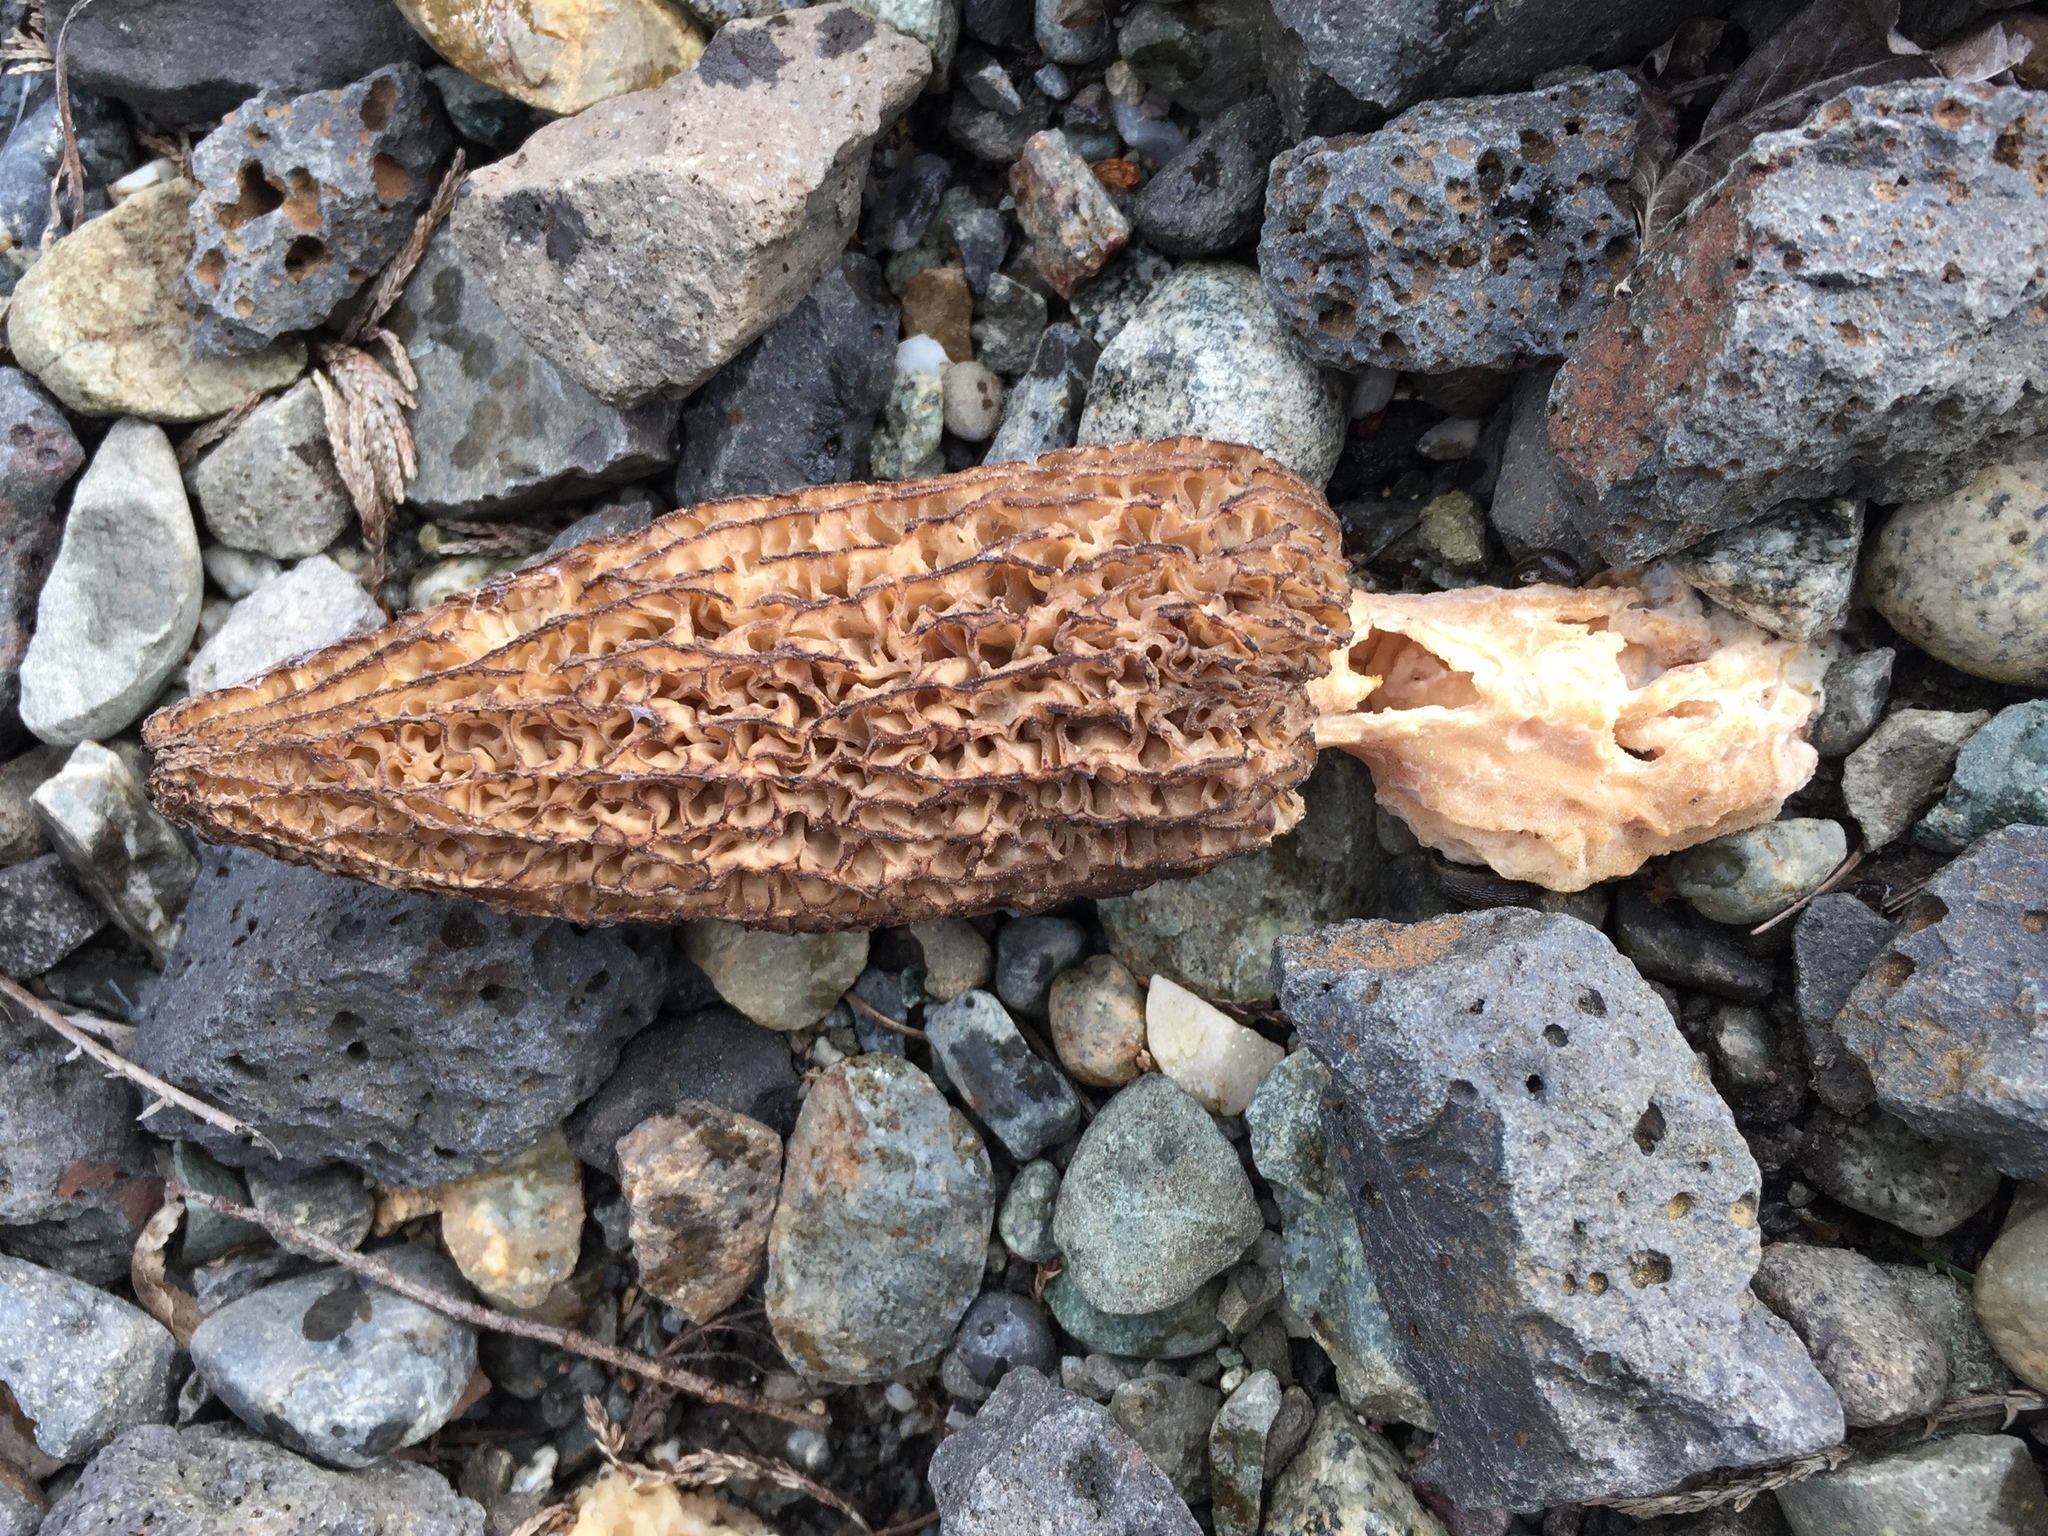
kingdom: Fungi
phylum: Ascomycota
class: Pezizomycetes
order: Pezizales
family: Morchellaceae
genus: Morchella
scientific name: Morchella importuna
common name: Landscaping black morel
